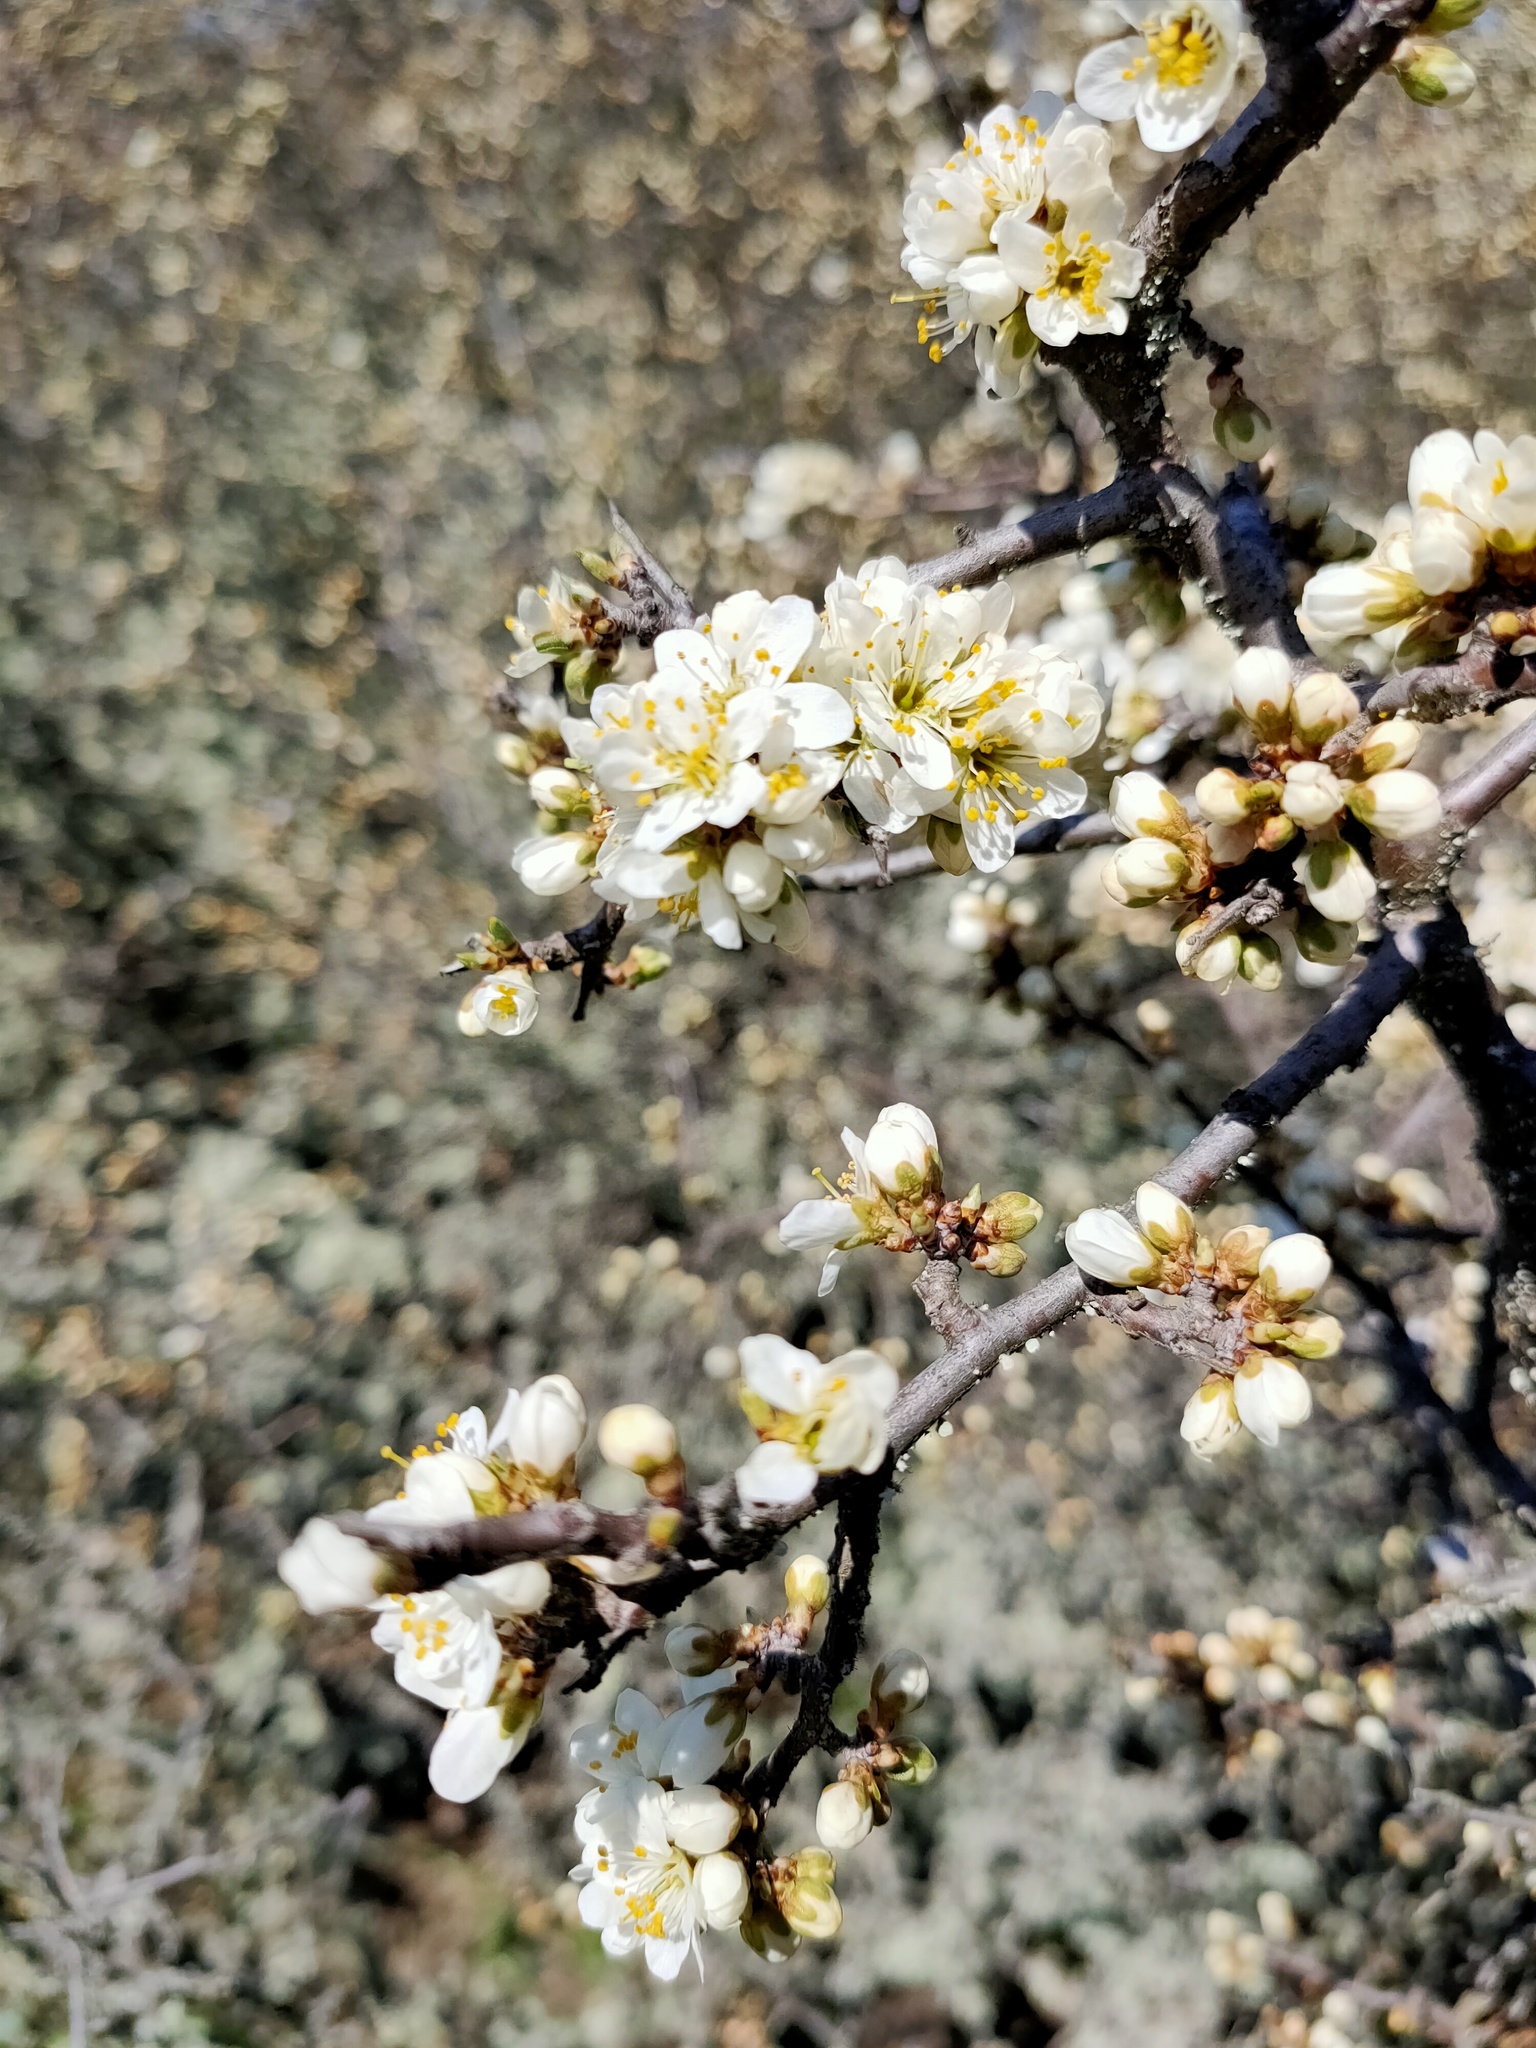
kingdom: Plantae
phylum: Tracheophyta
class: Magnoliopsida
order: Rosales
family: Rosaceae
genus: Prunus
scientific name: Prunus spinosa
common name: Blackthorn
